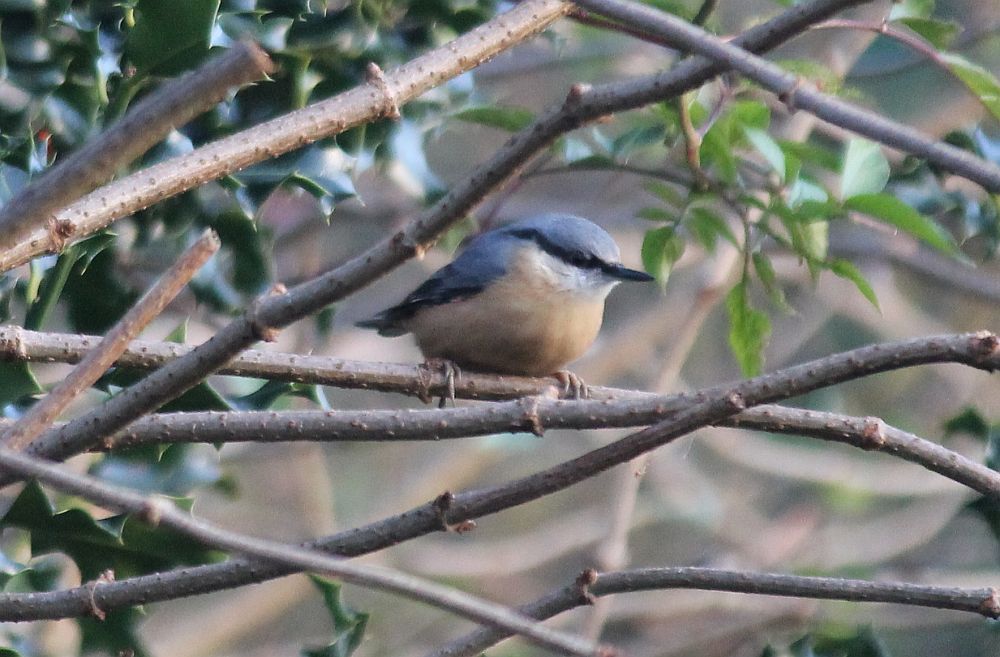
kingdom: Animalia
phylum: Chordata
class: Aves
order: Passeriformes
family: Sittidae
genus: Sitta
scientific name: Sitta europaea
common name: Eurasian nuthatch
